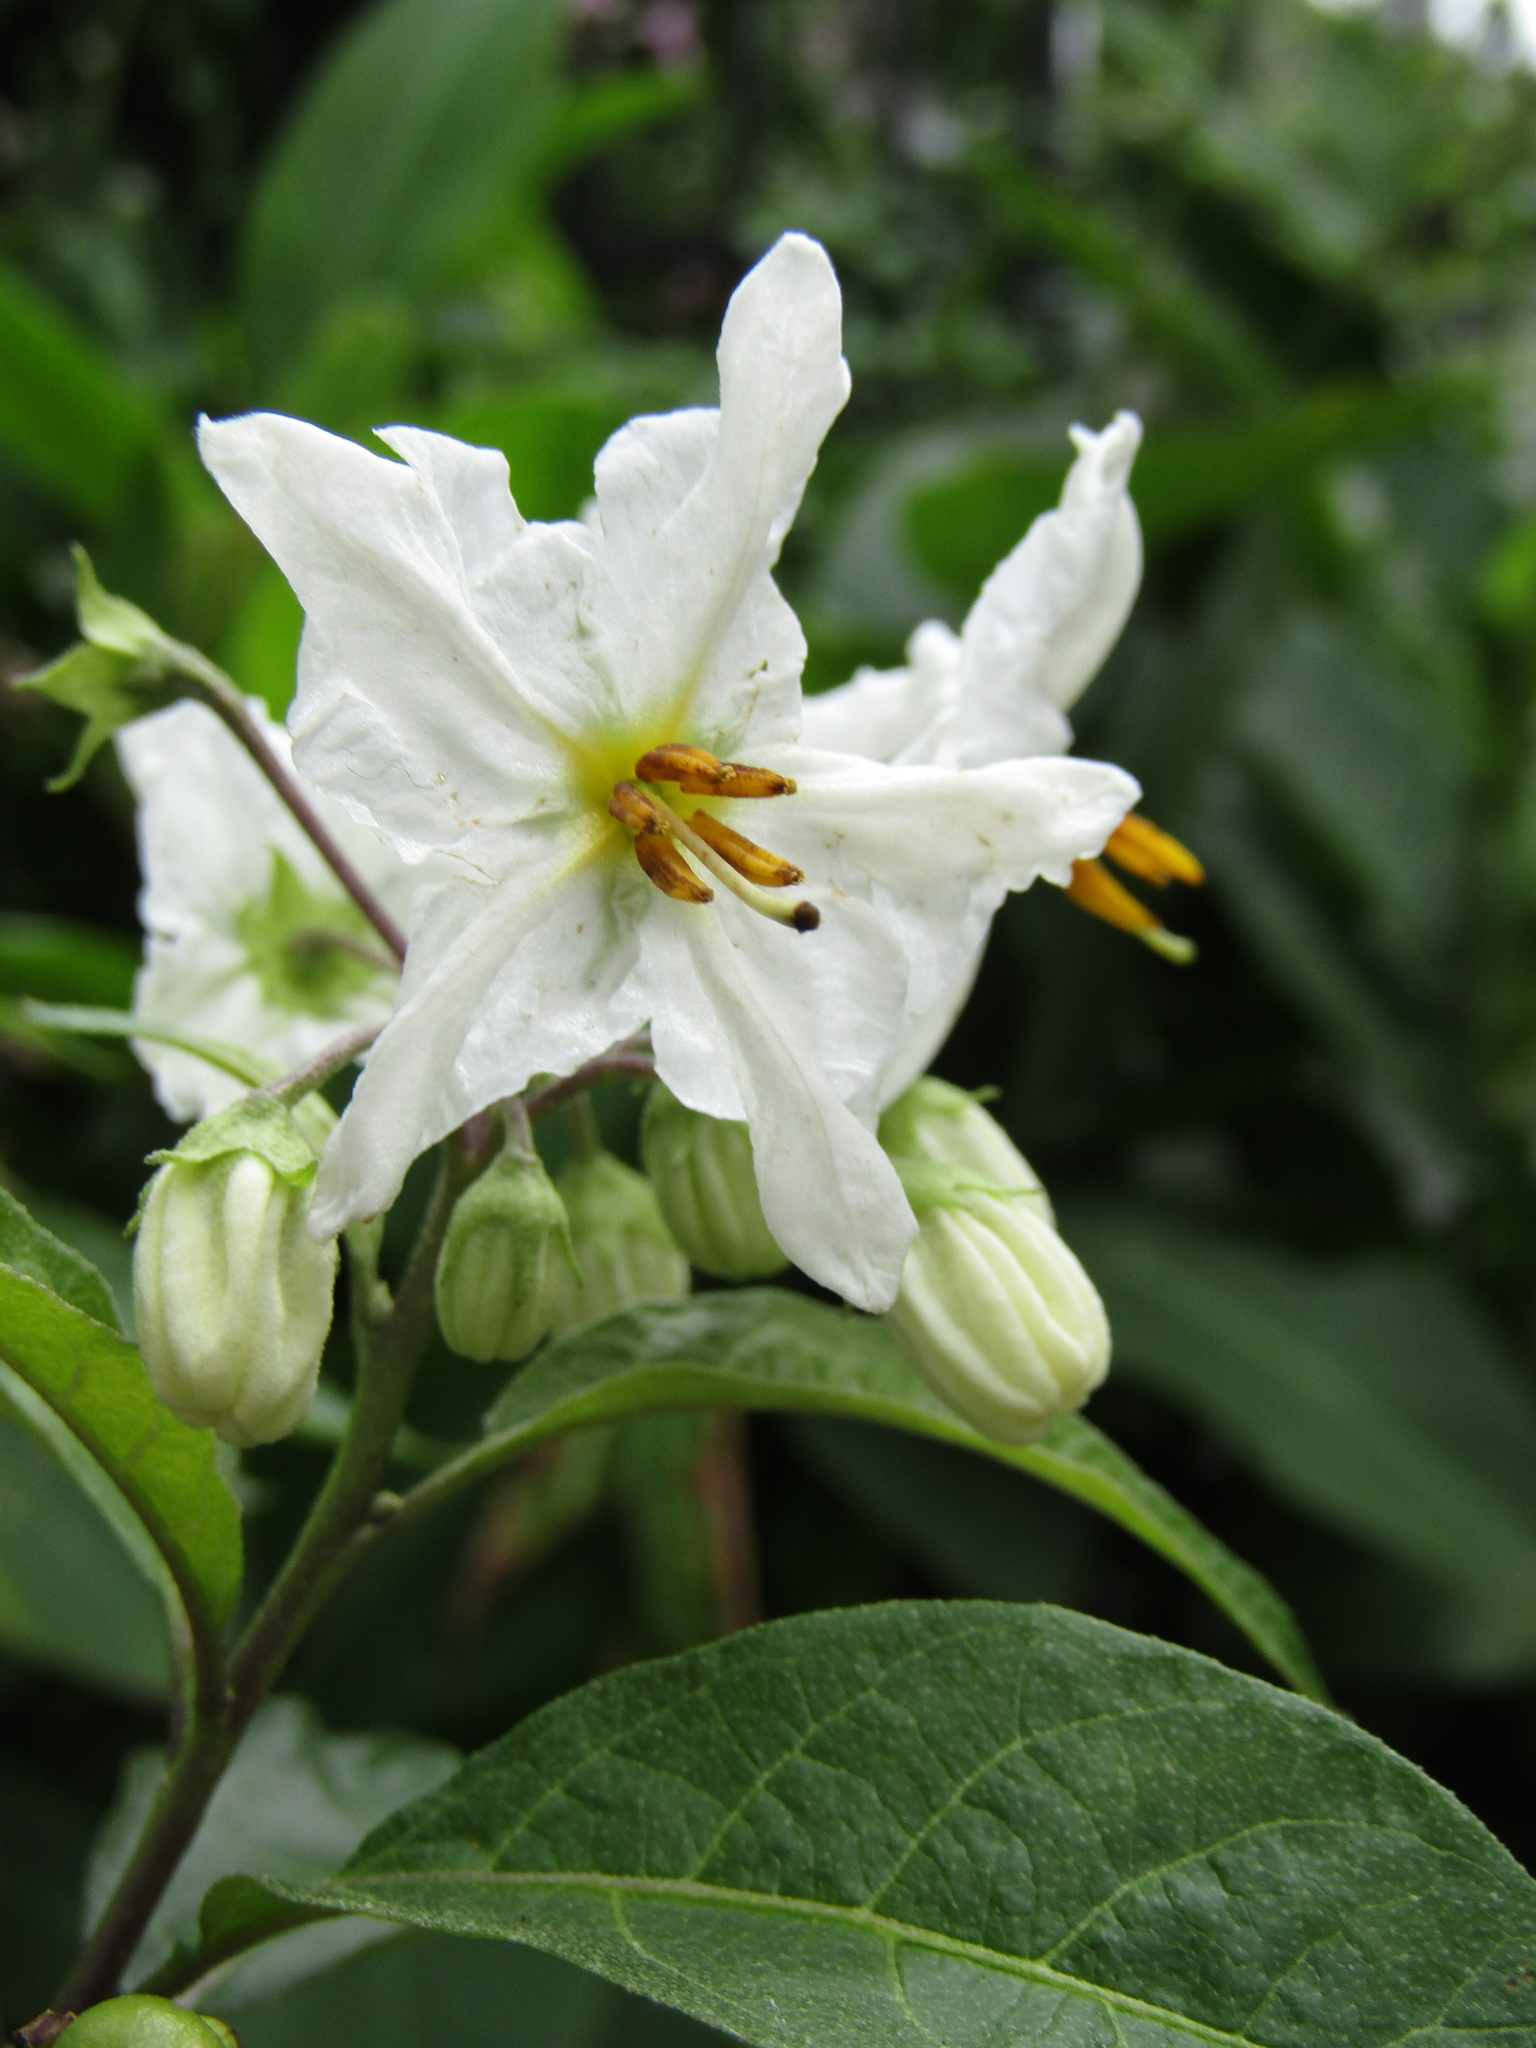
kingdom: Plantae
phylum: Tracheophyta
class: Magnoliopsida
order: Solanales
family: Solanaceae
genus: Solanum
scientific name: Solanum bonariense
